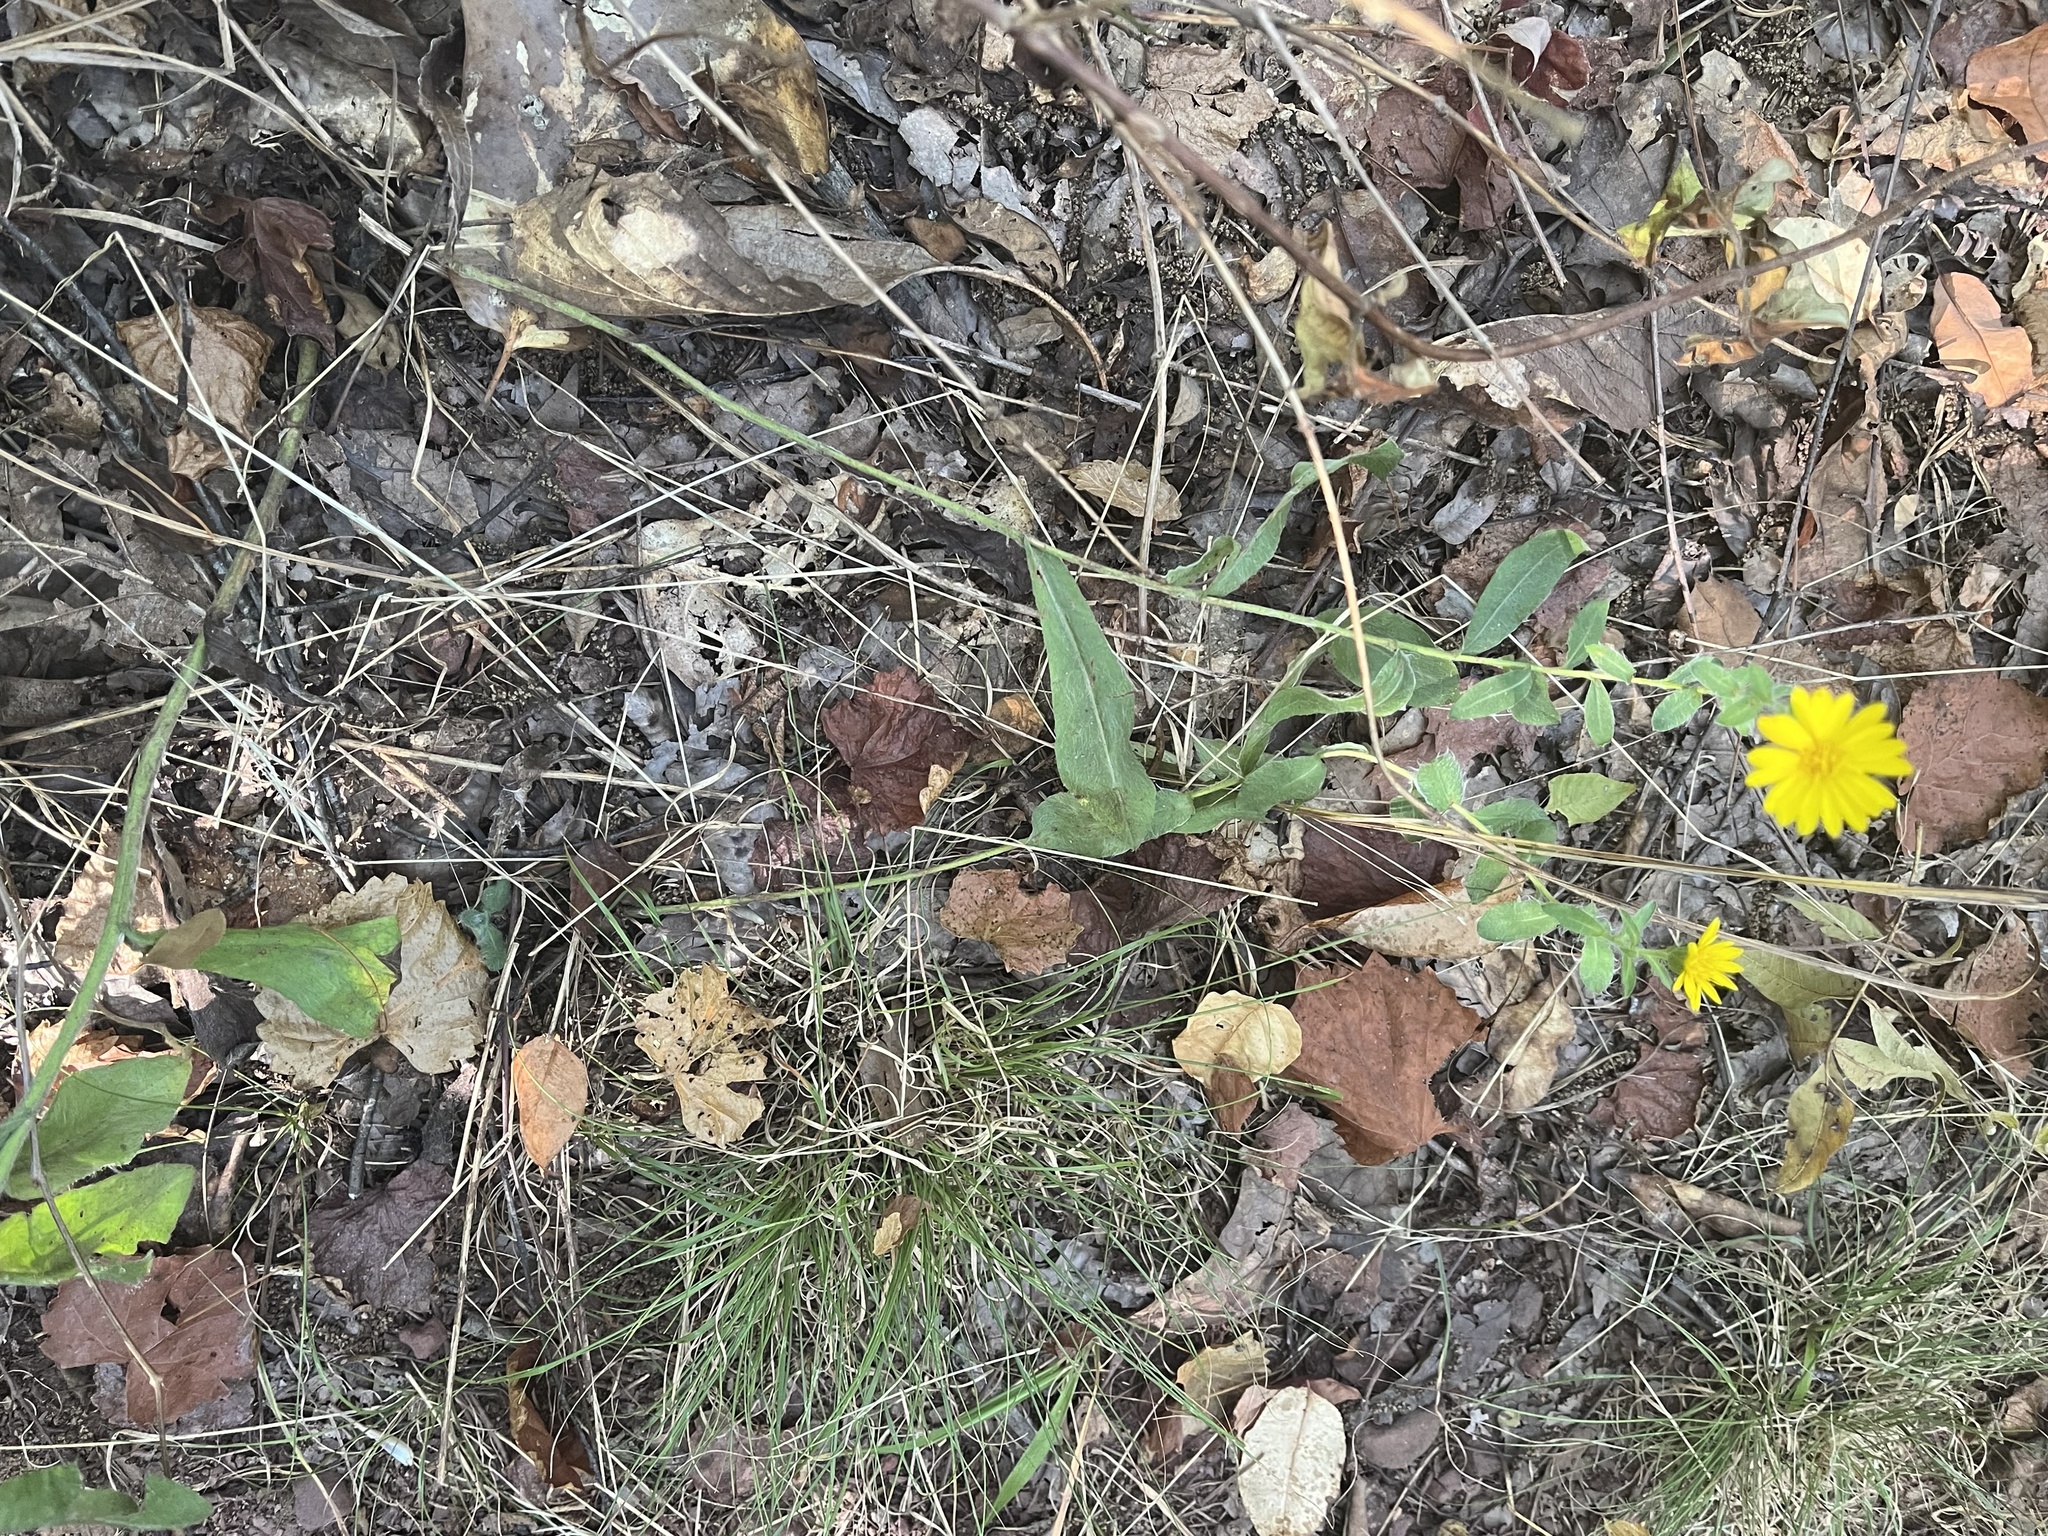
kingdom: Plantae
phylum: Tracheophyta
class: Magnoliopsida
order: Asterales
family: Asteraceae
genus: Chrysopsis
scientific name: Chrysopsis mariana
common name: Maryland golden-aster
